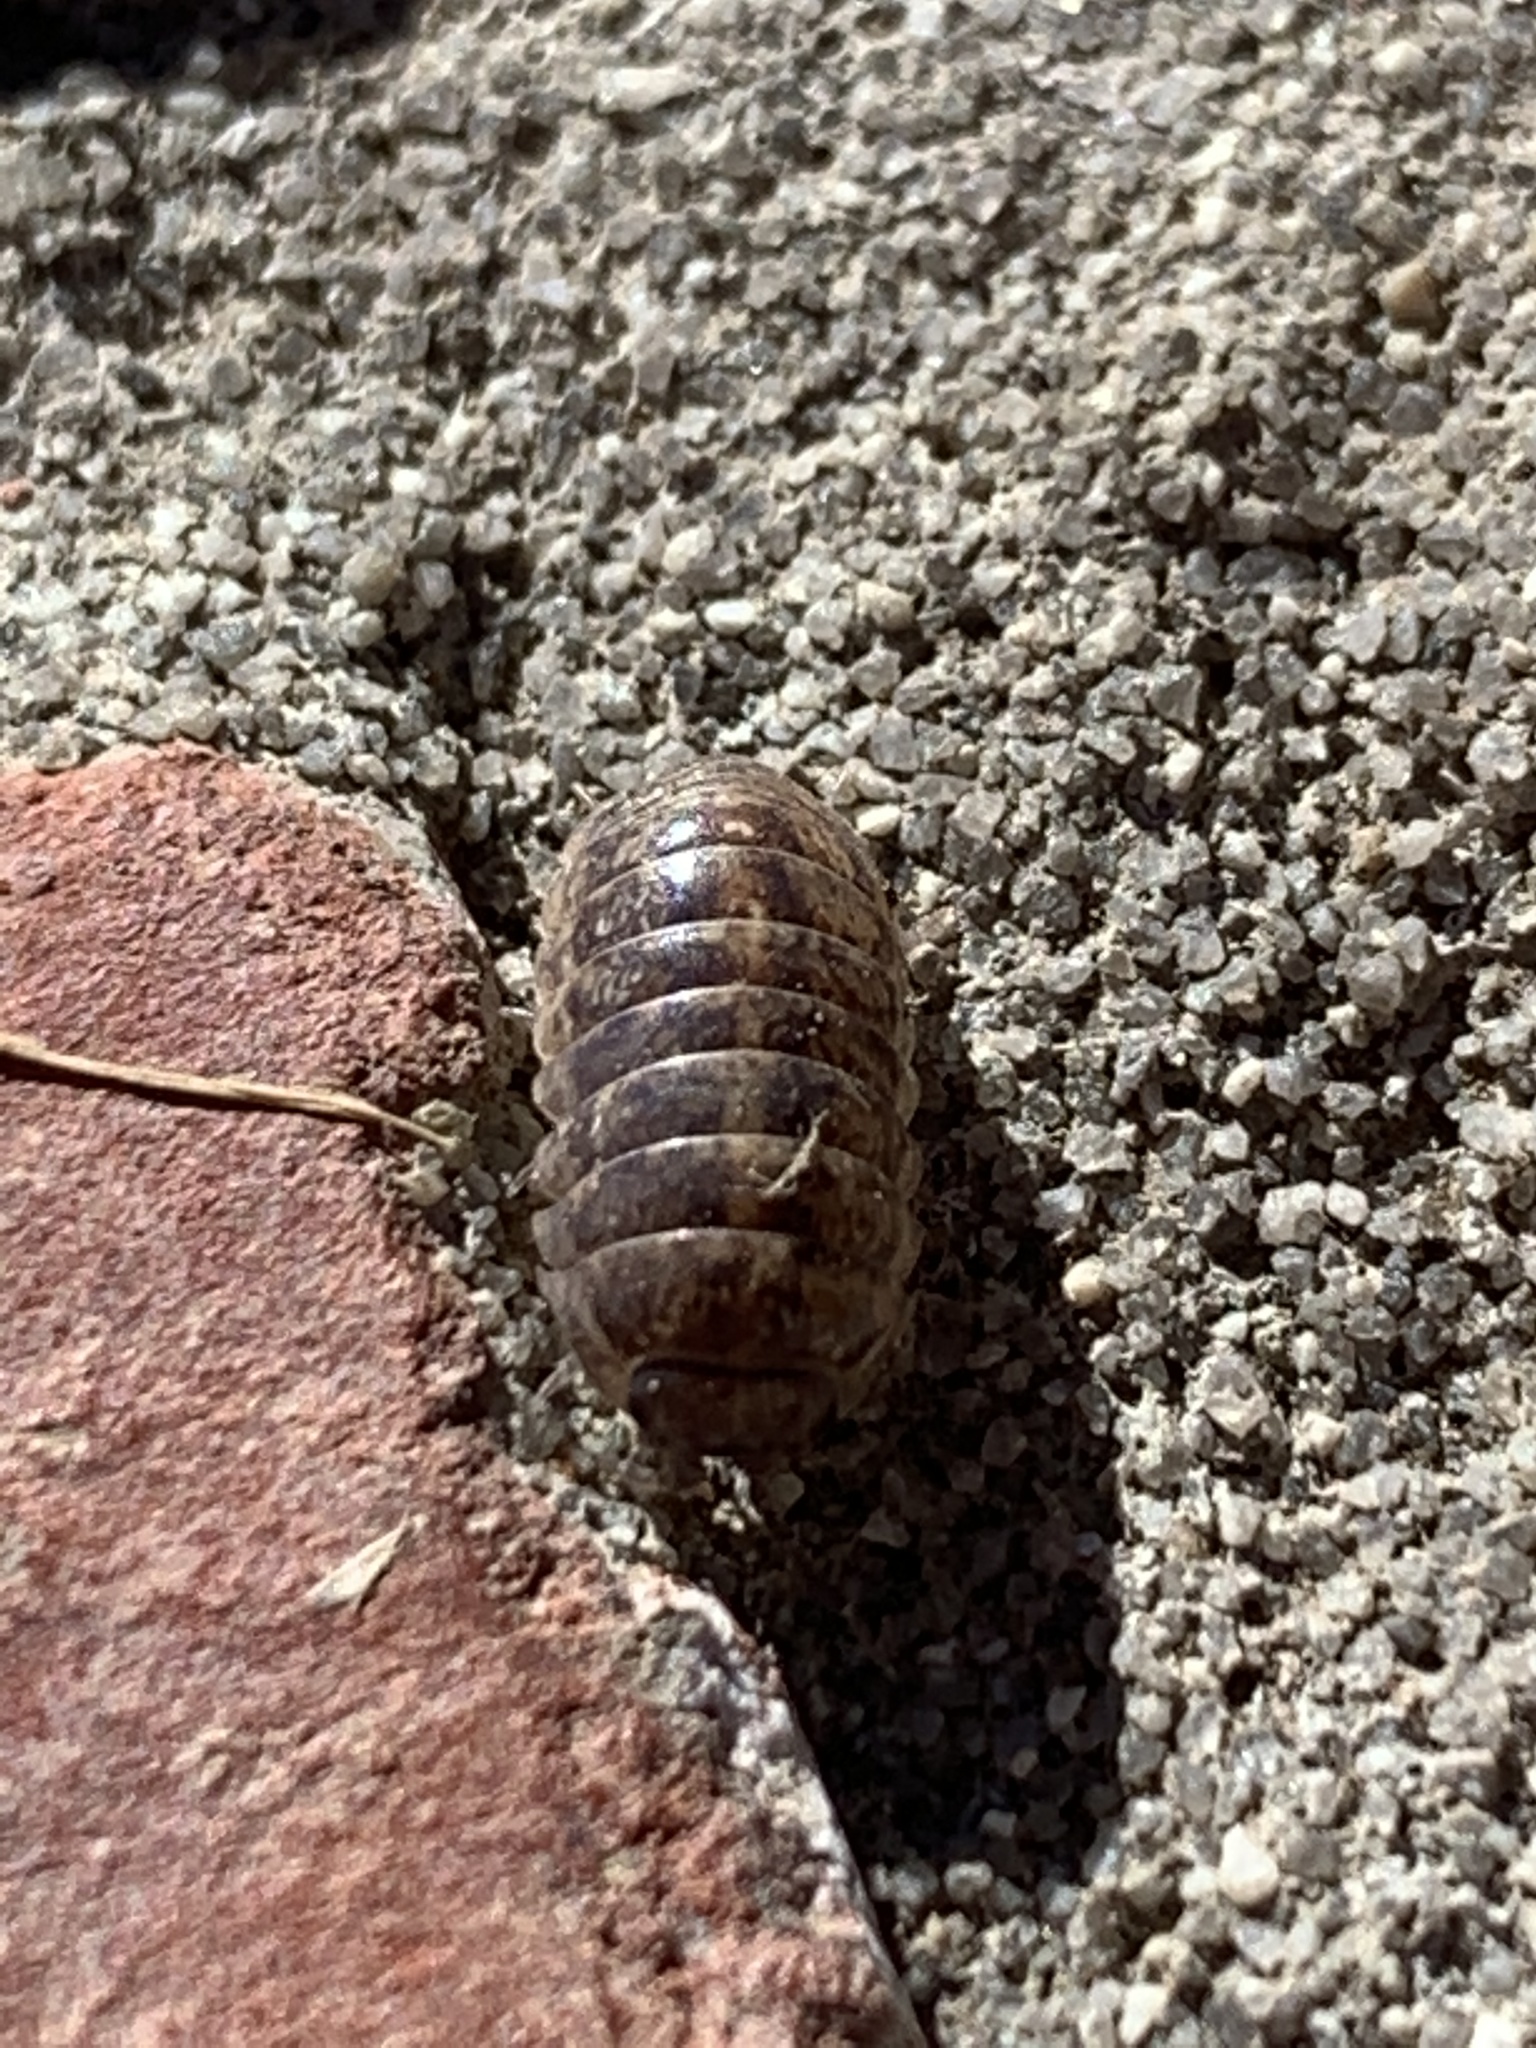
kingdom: Animalia
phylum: Arthropoda
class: Malacostraca
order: Isopoda
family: Armadillidiidae
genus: Armadillidium
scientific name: Armadillidium vulgare
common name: Common pill woodlouse
